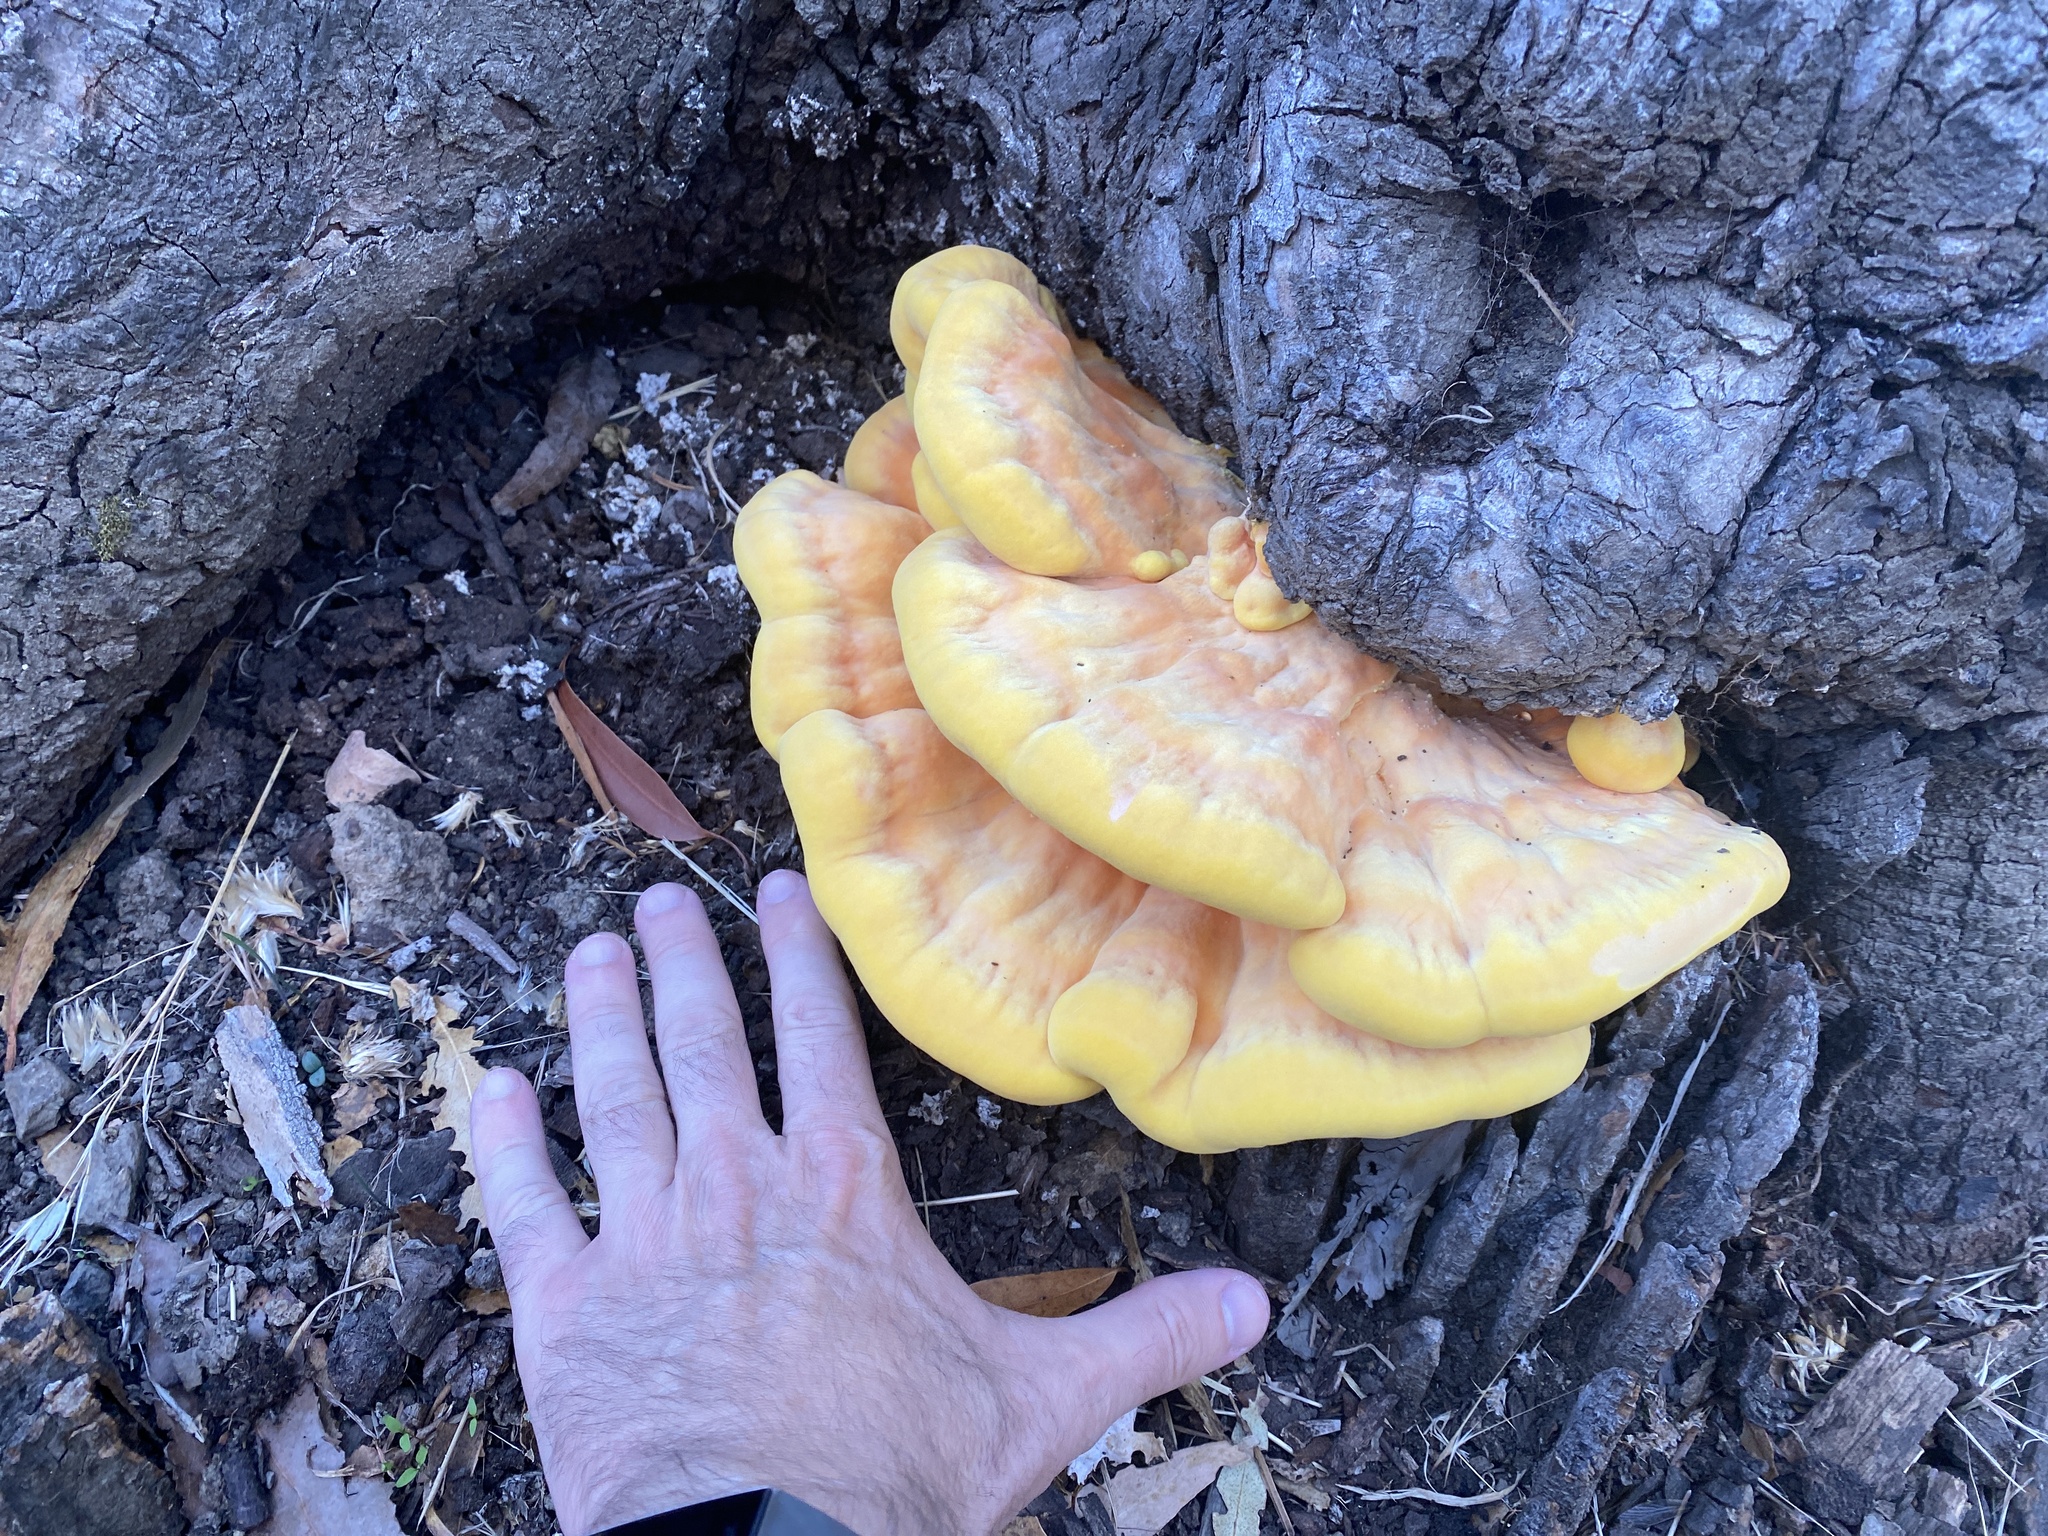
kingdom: Fungi
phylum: Basidiomycota
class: Agaricomycetes
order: Polyporales
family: Laetiporaceae
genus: Laetiporus
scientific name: Laetiporus gilbertsonii
